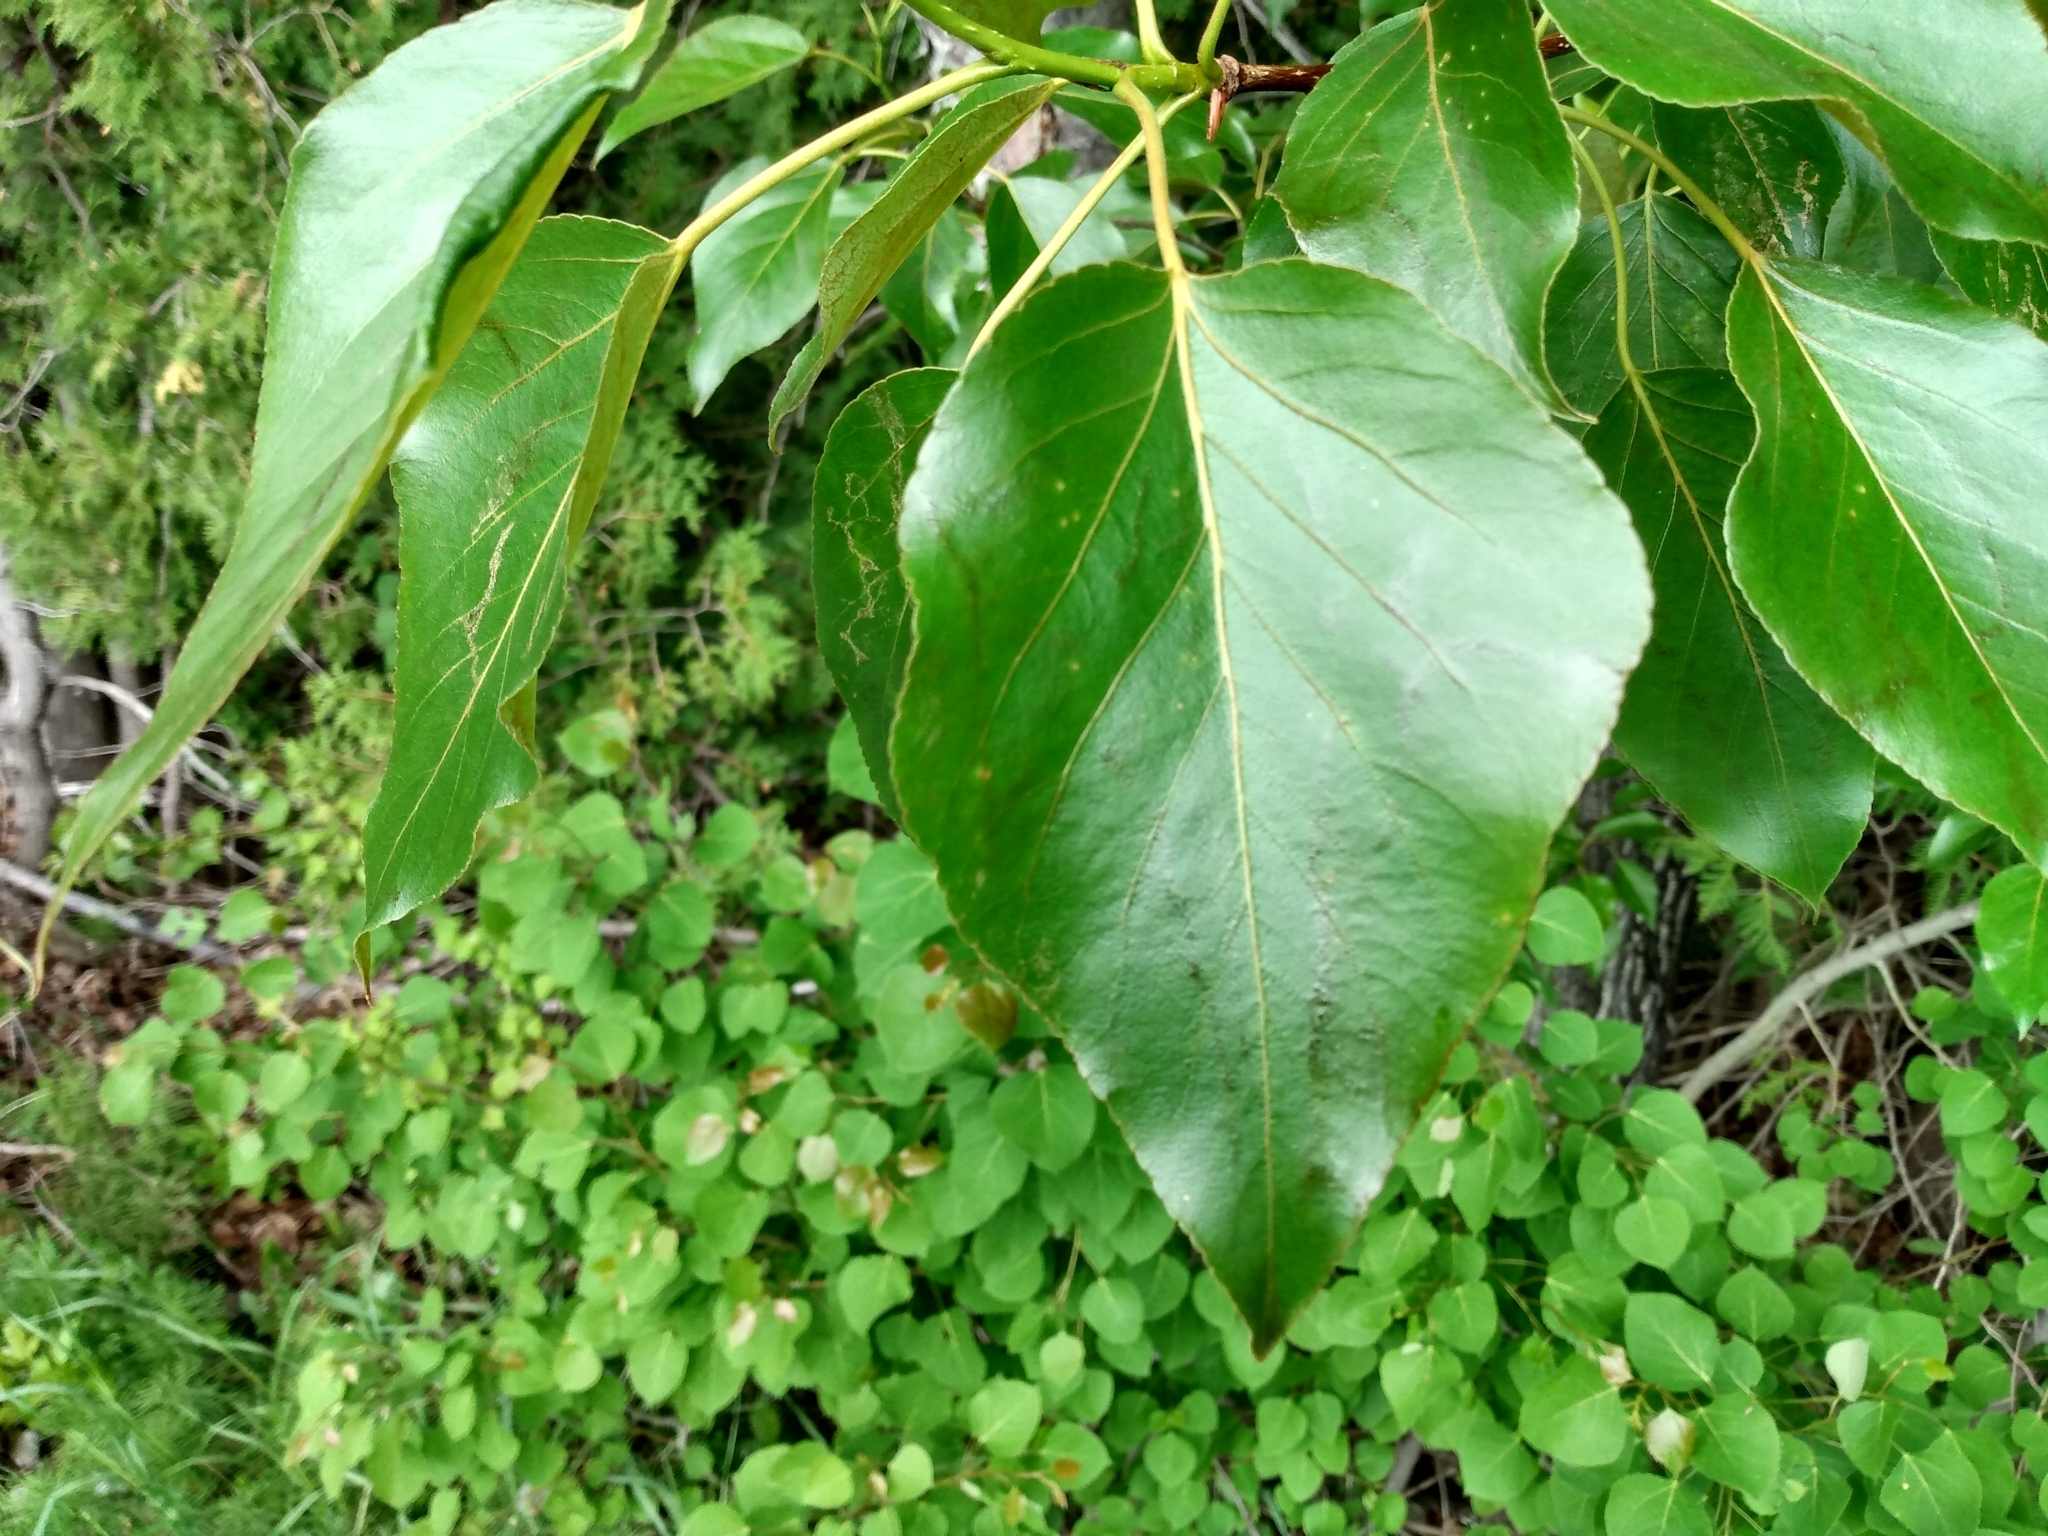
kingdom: Plantae
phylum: Tracheophyta
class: Magnoliopsida
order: Malpighiales
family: Salicaceae
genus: Populus
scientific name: Populus balsamifera
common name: Balsam poplar
